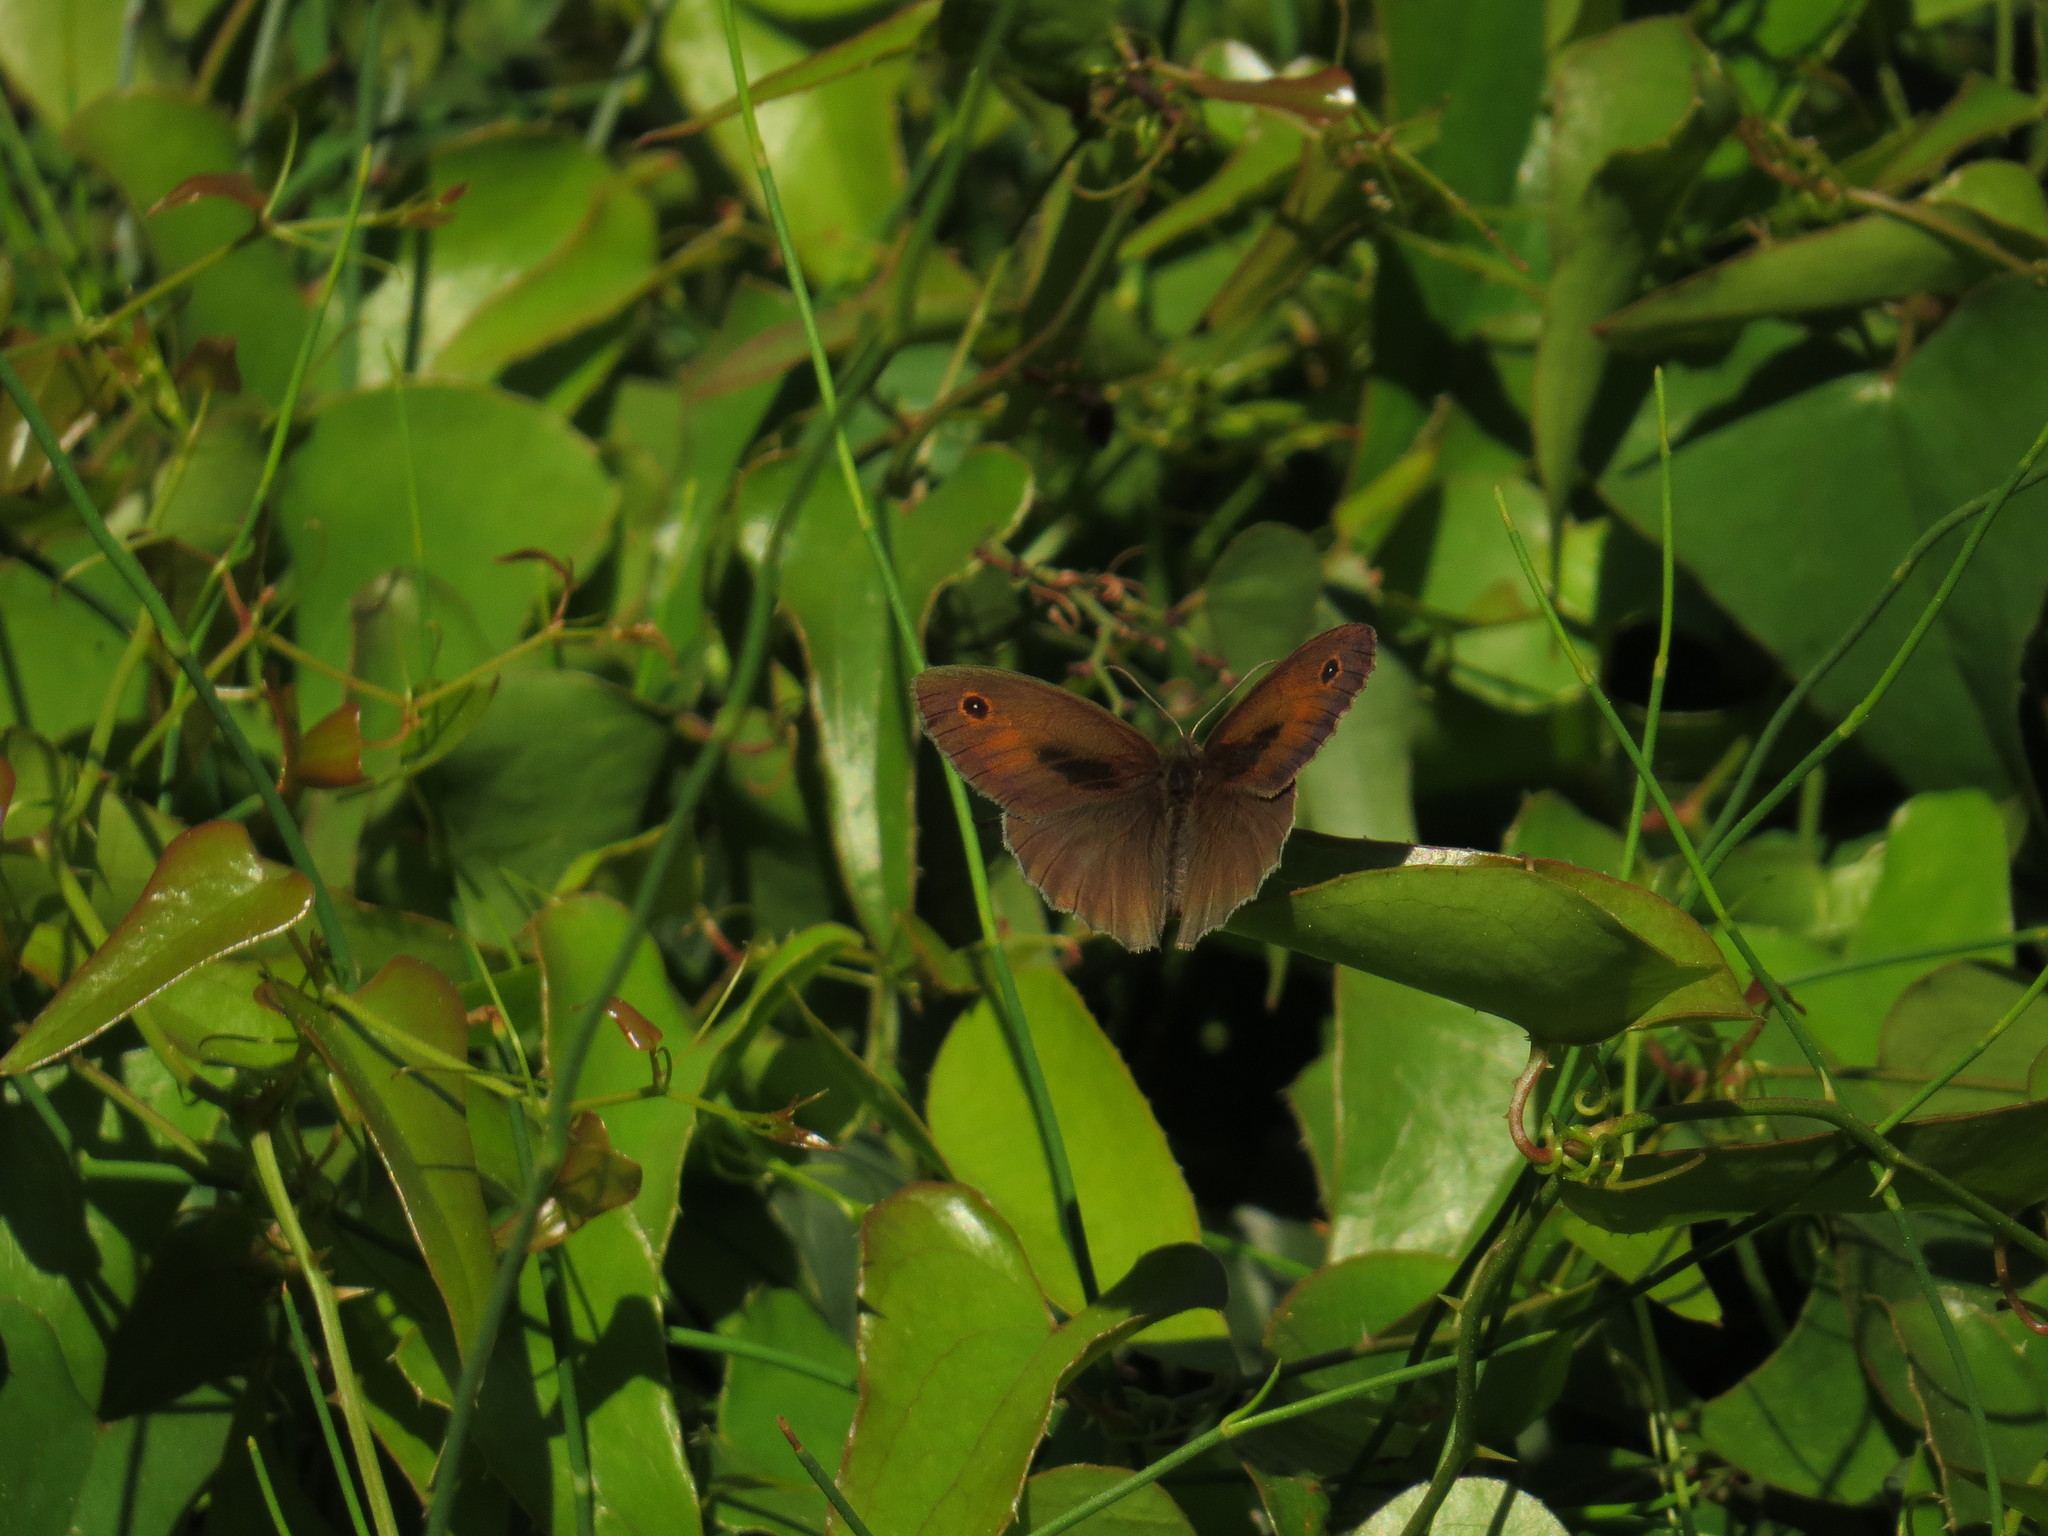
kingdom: Animalia
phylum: Arthropoda
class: Insecta
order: Lepidoptera
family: Nymphalidae
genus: Maniola
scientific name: Maniola telmessia
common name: Persian meadow brown
